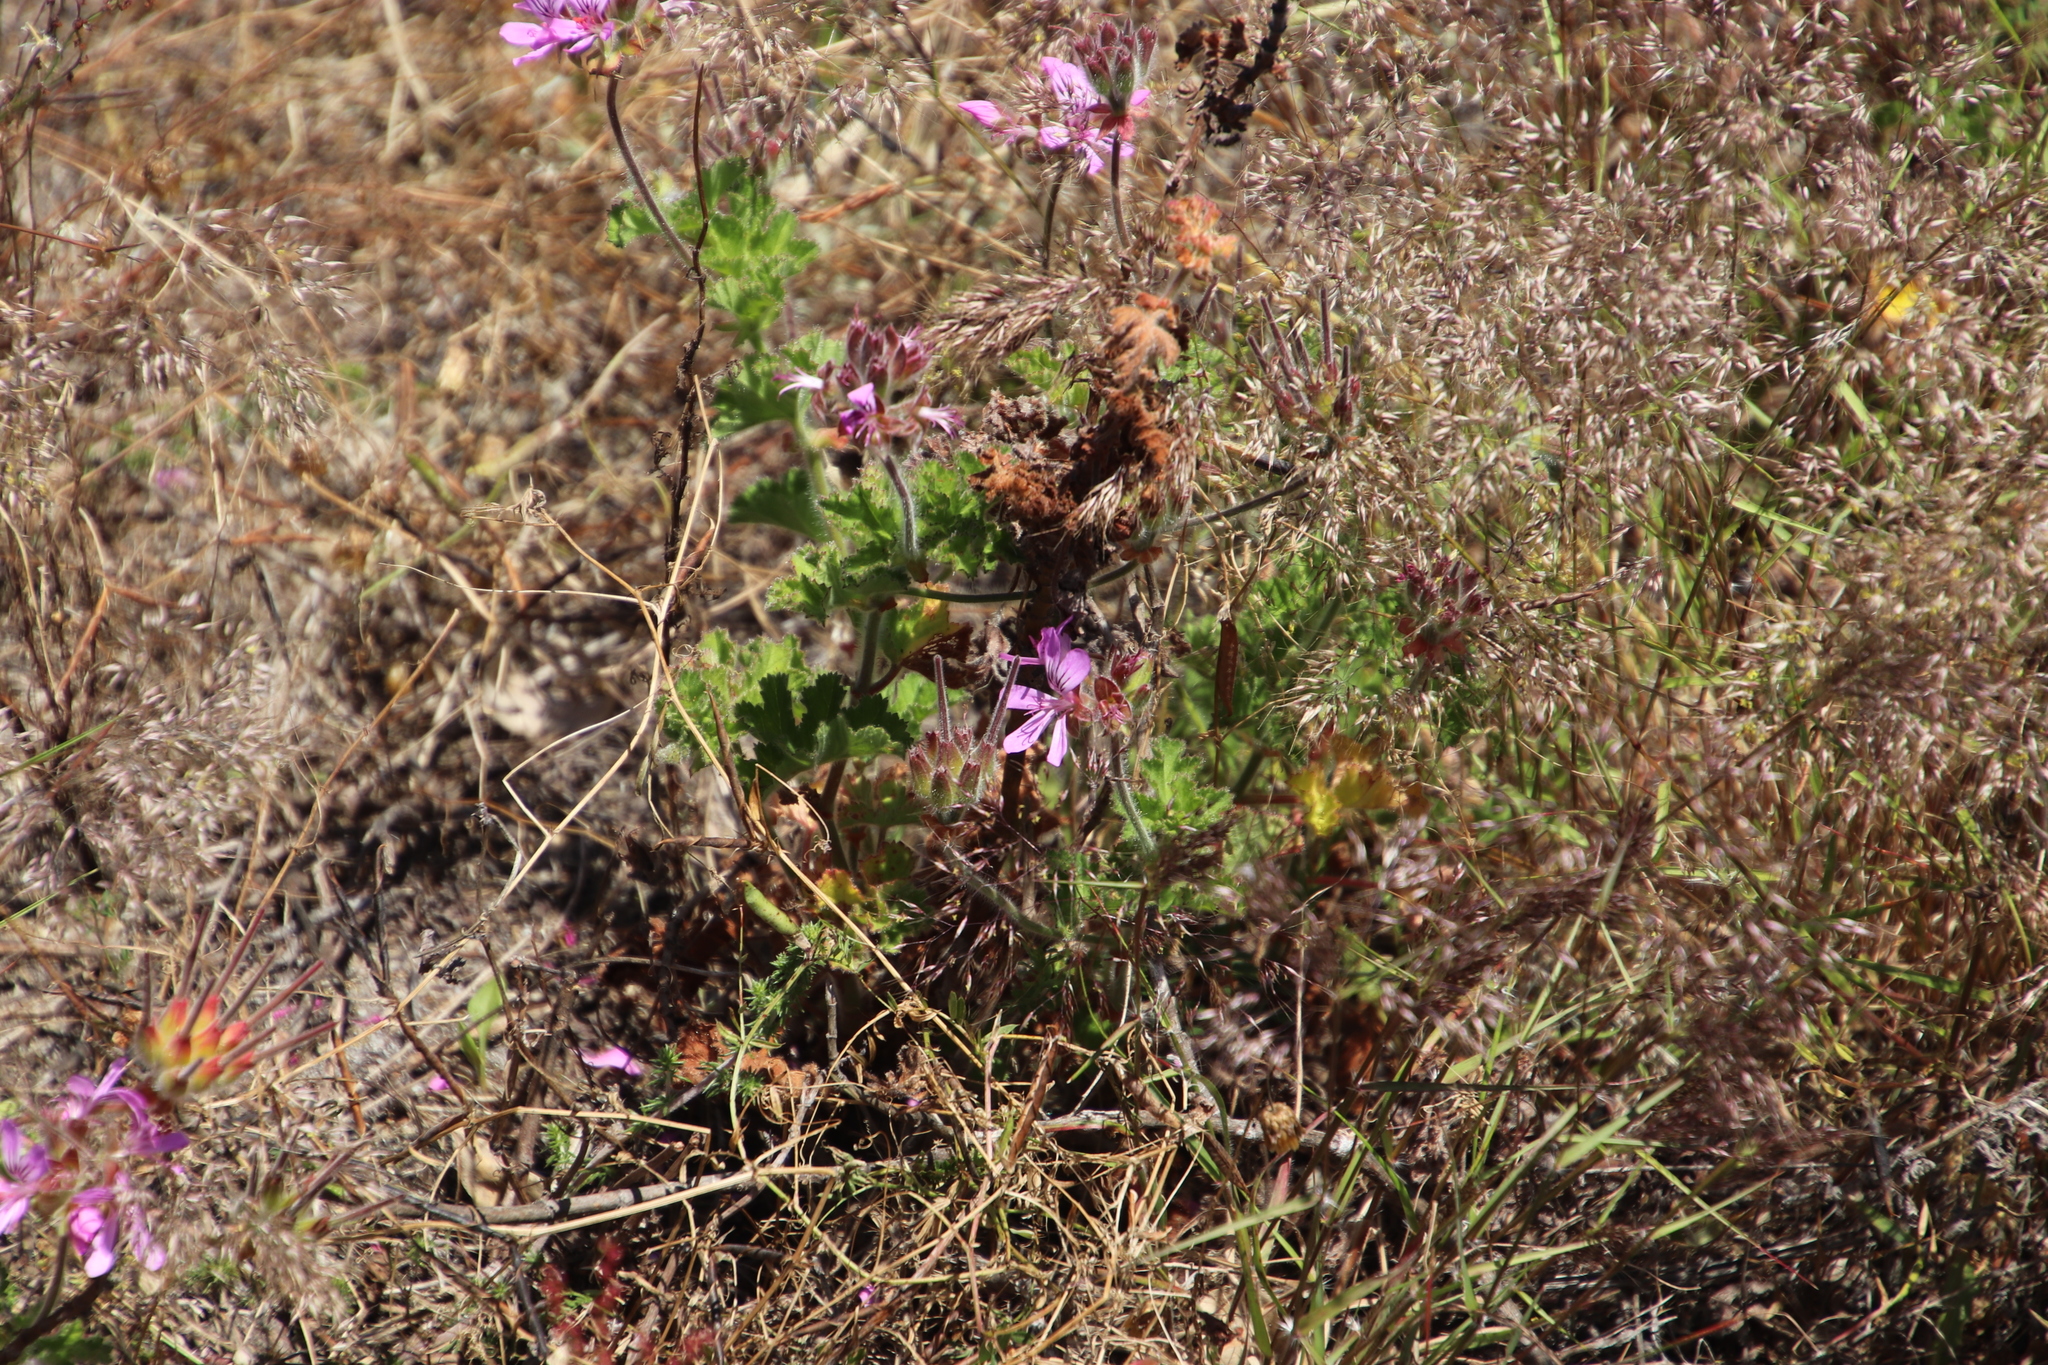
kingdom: Plantae
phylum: Tracheophyta
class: Magnoliopsida
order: Geraniales
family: Geraniaceae
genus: Pelargonium
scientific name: Pelargonium capitatum
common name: Rose scented geranium
